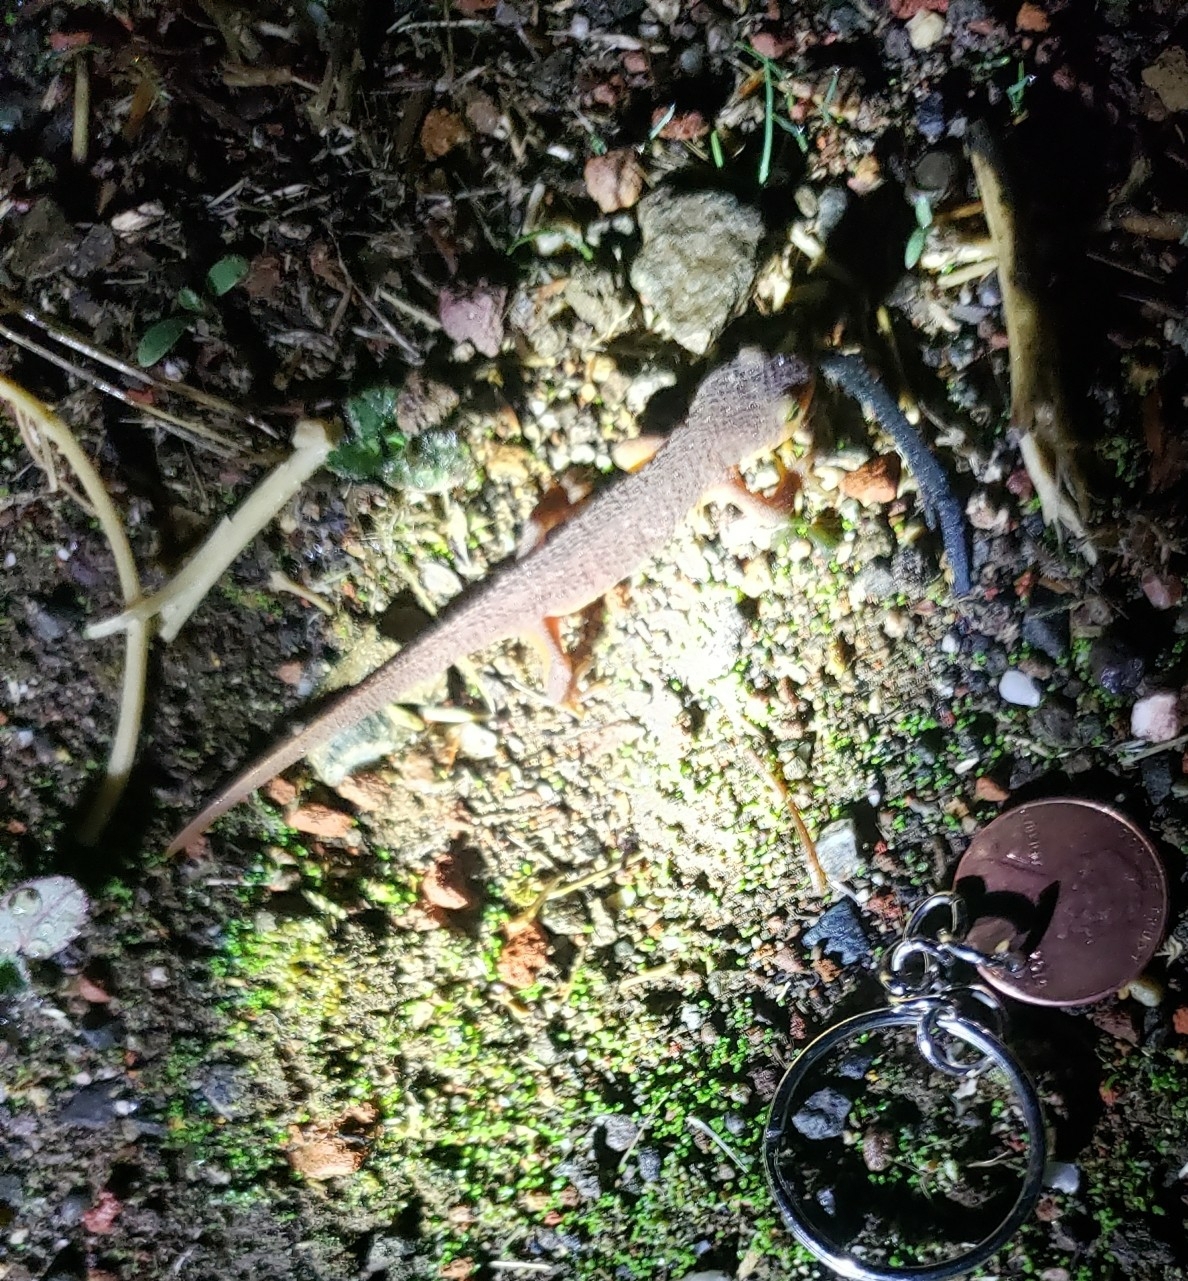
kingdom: Animalia
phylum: Chordata
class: Amphibia
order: Caudata
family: Salamandridae
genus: Taricha
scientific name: Taricha torosa
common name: California newt
